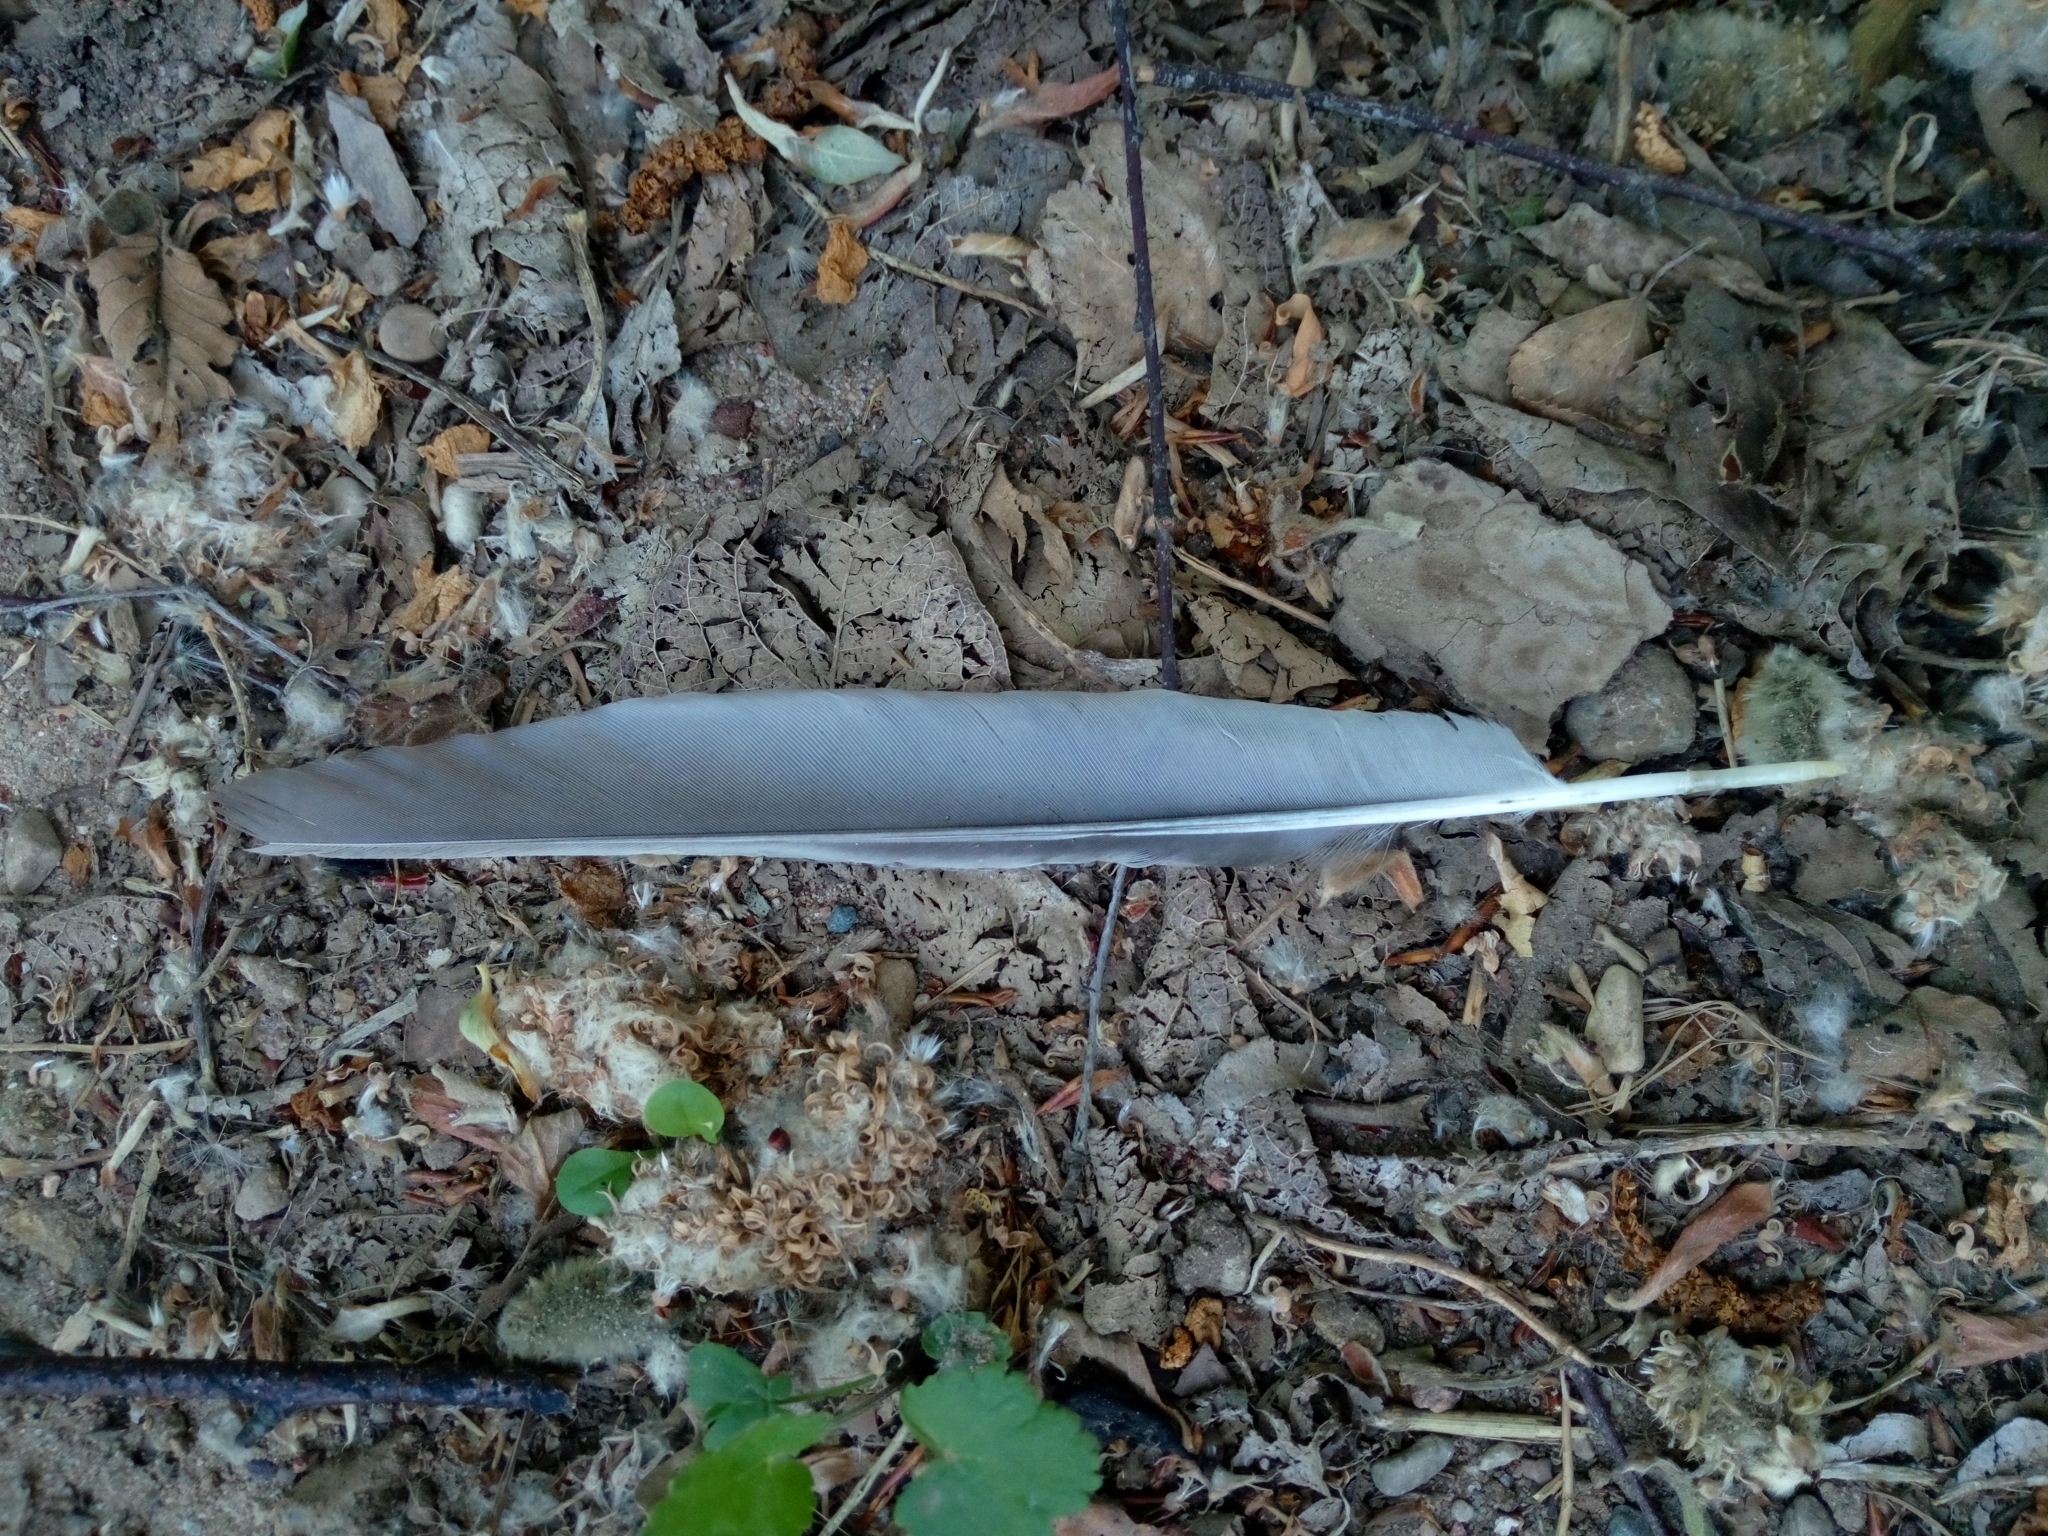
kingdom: Animalia
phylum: Chordata
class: Aves
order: Passeriformes
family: Corvidae
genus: Garrulus
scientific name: Garrulus glandarius
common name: Eurasian jay
